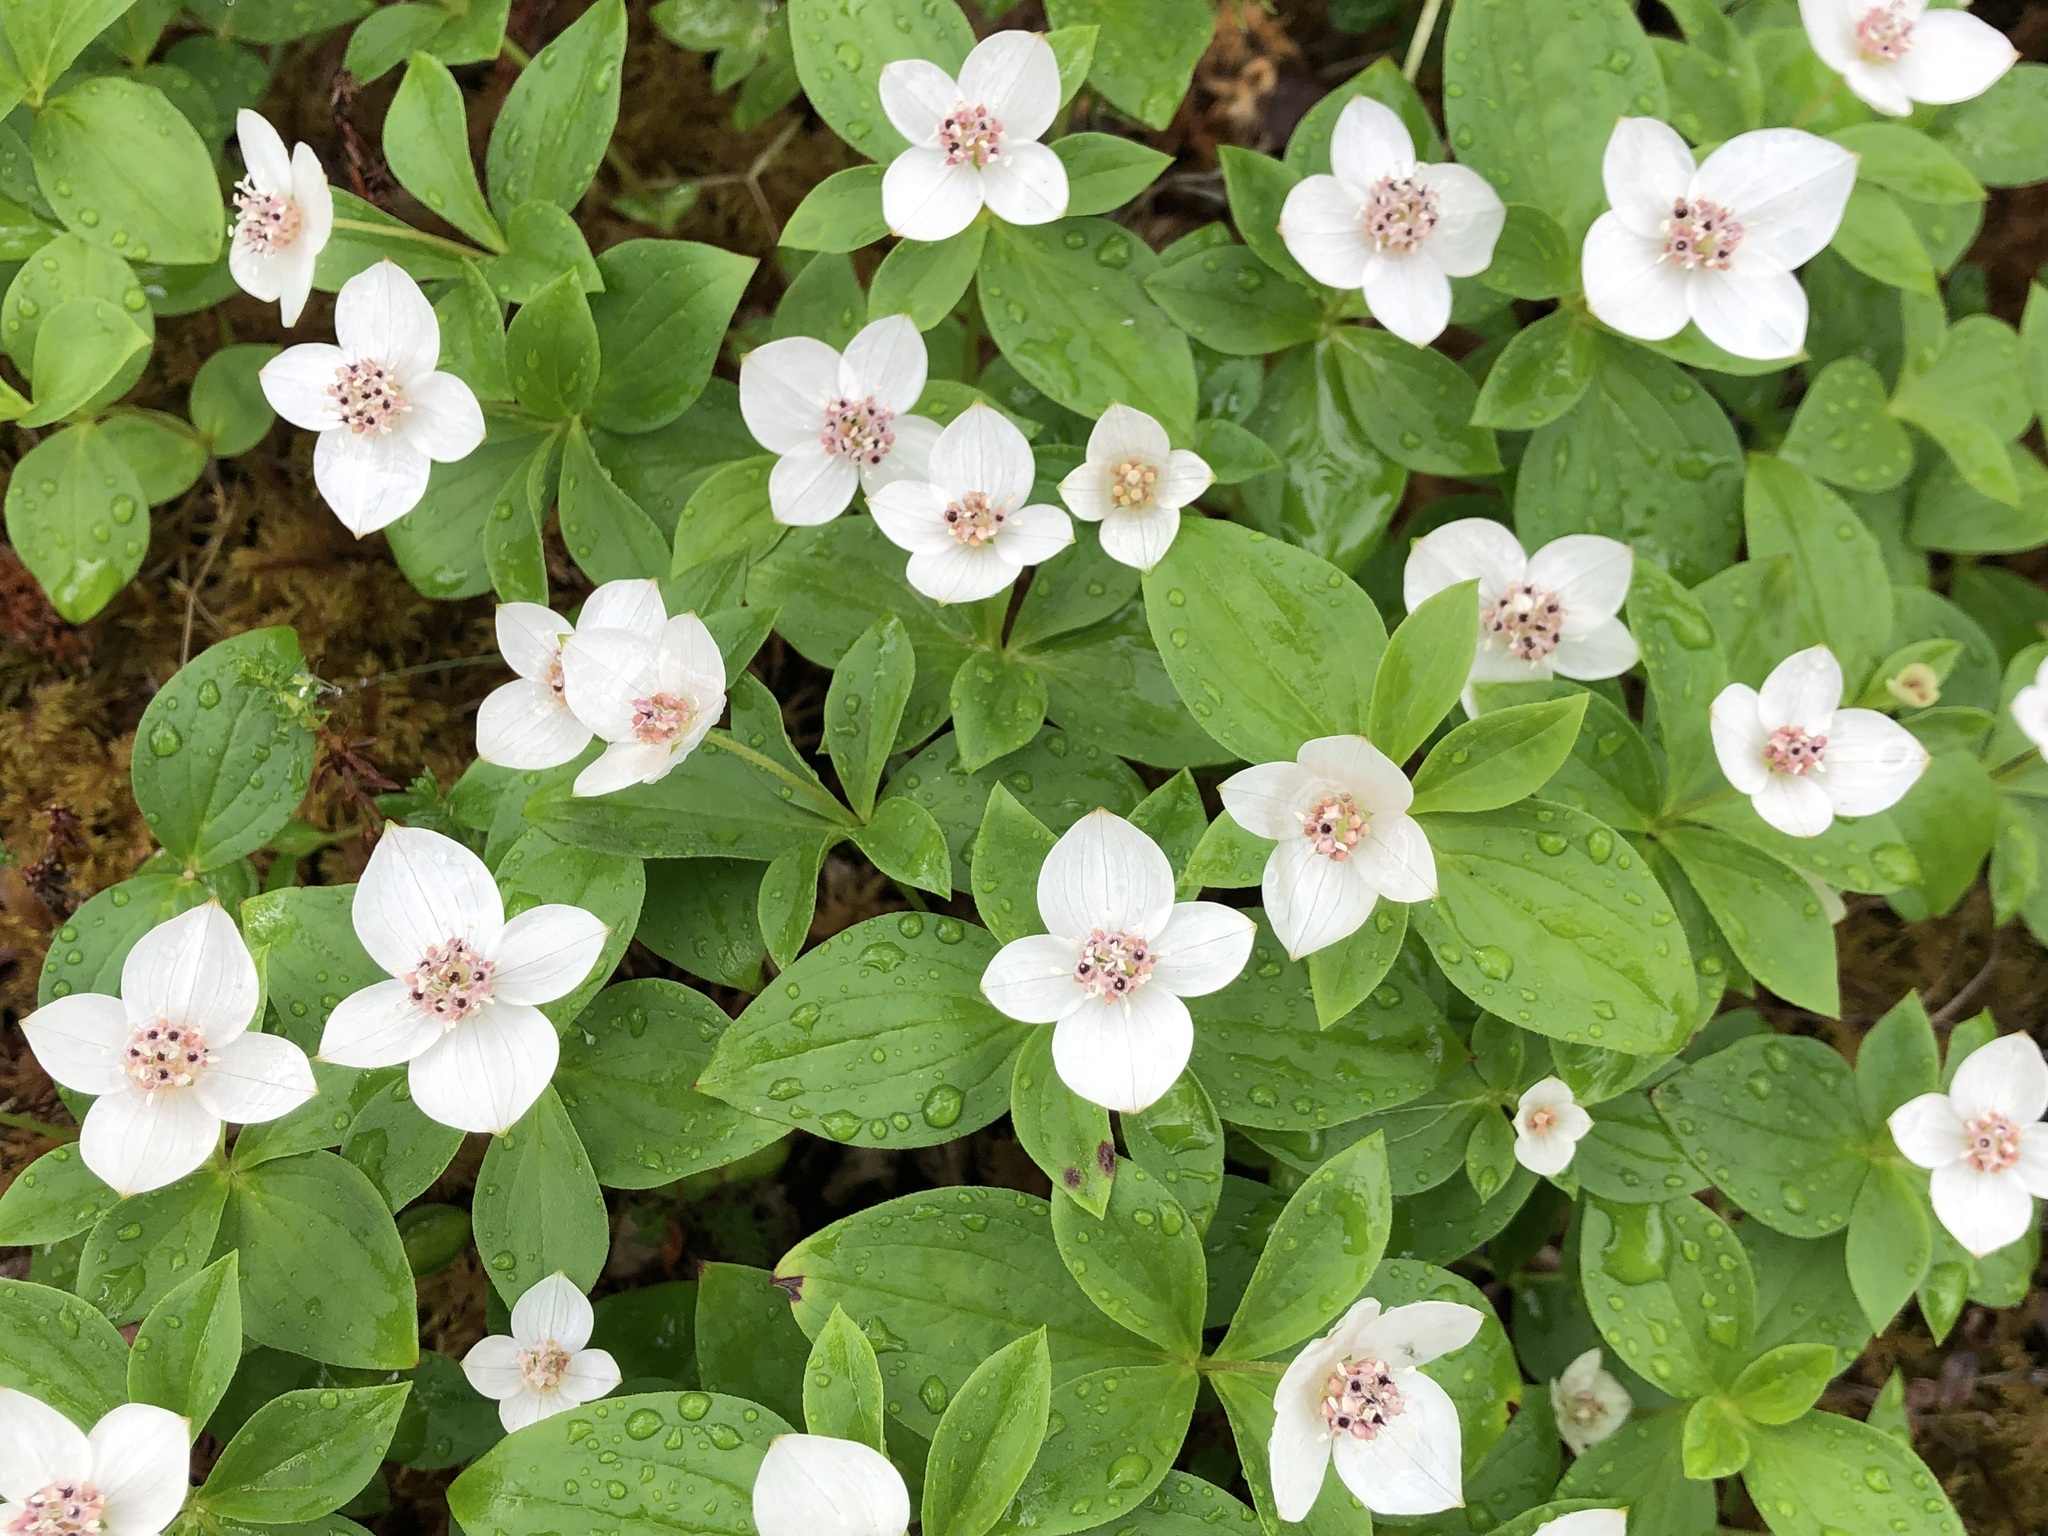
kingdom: Plantae
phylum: Tracheophyta
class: Magnoliopsida
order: Cornales
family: Cornaceae
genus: Cornus
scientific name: Cornus canadensis
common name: Creeping dogwood
